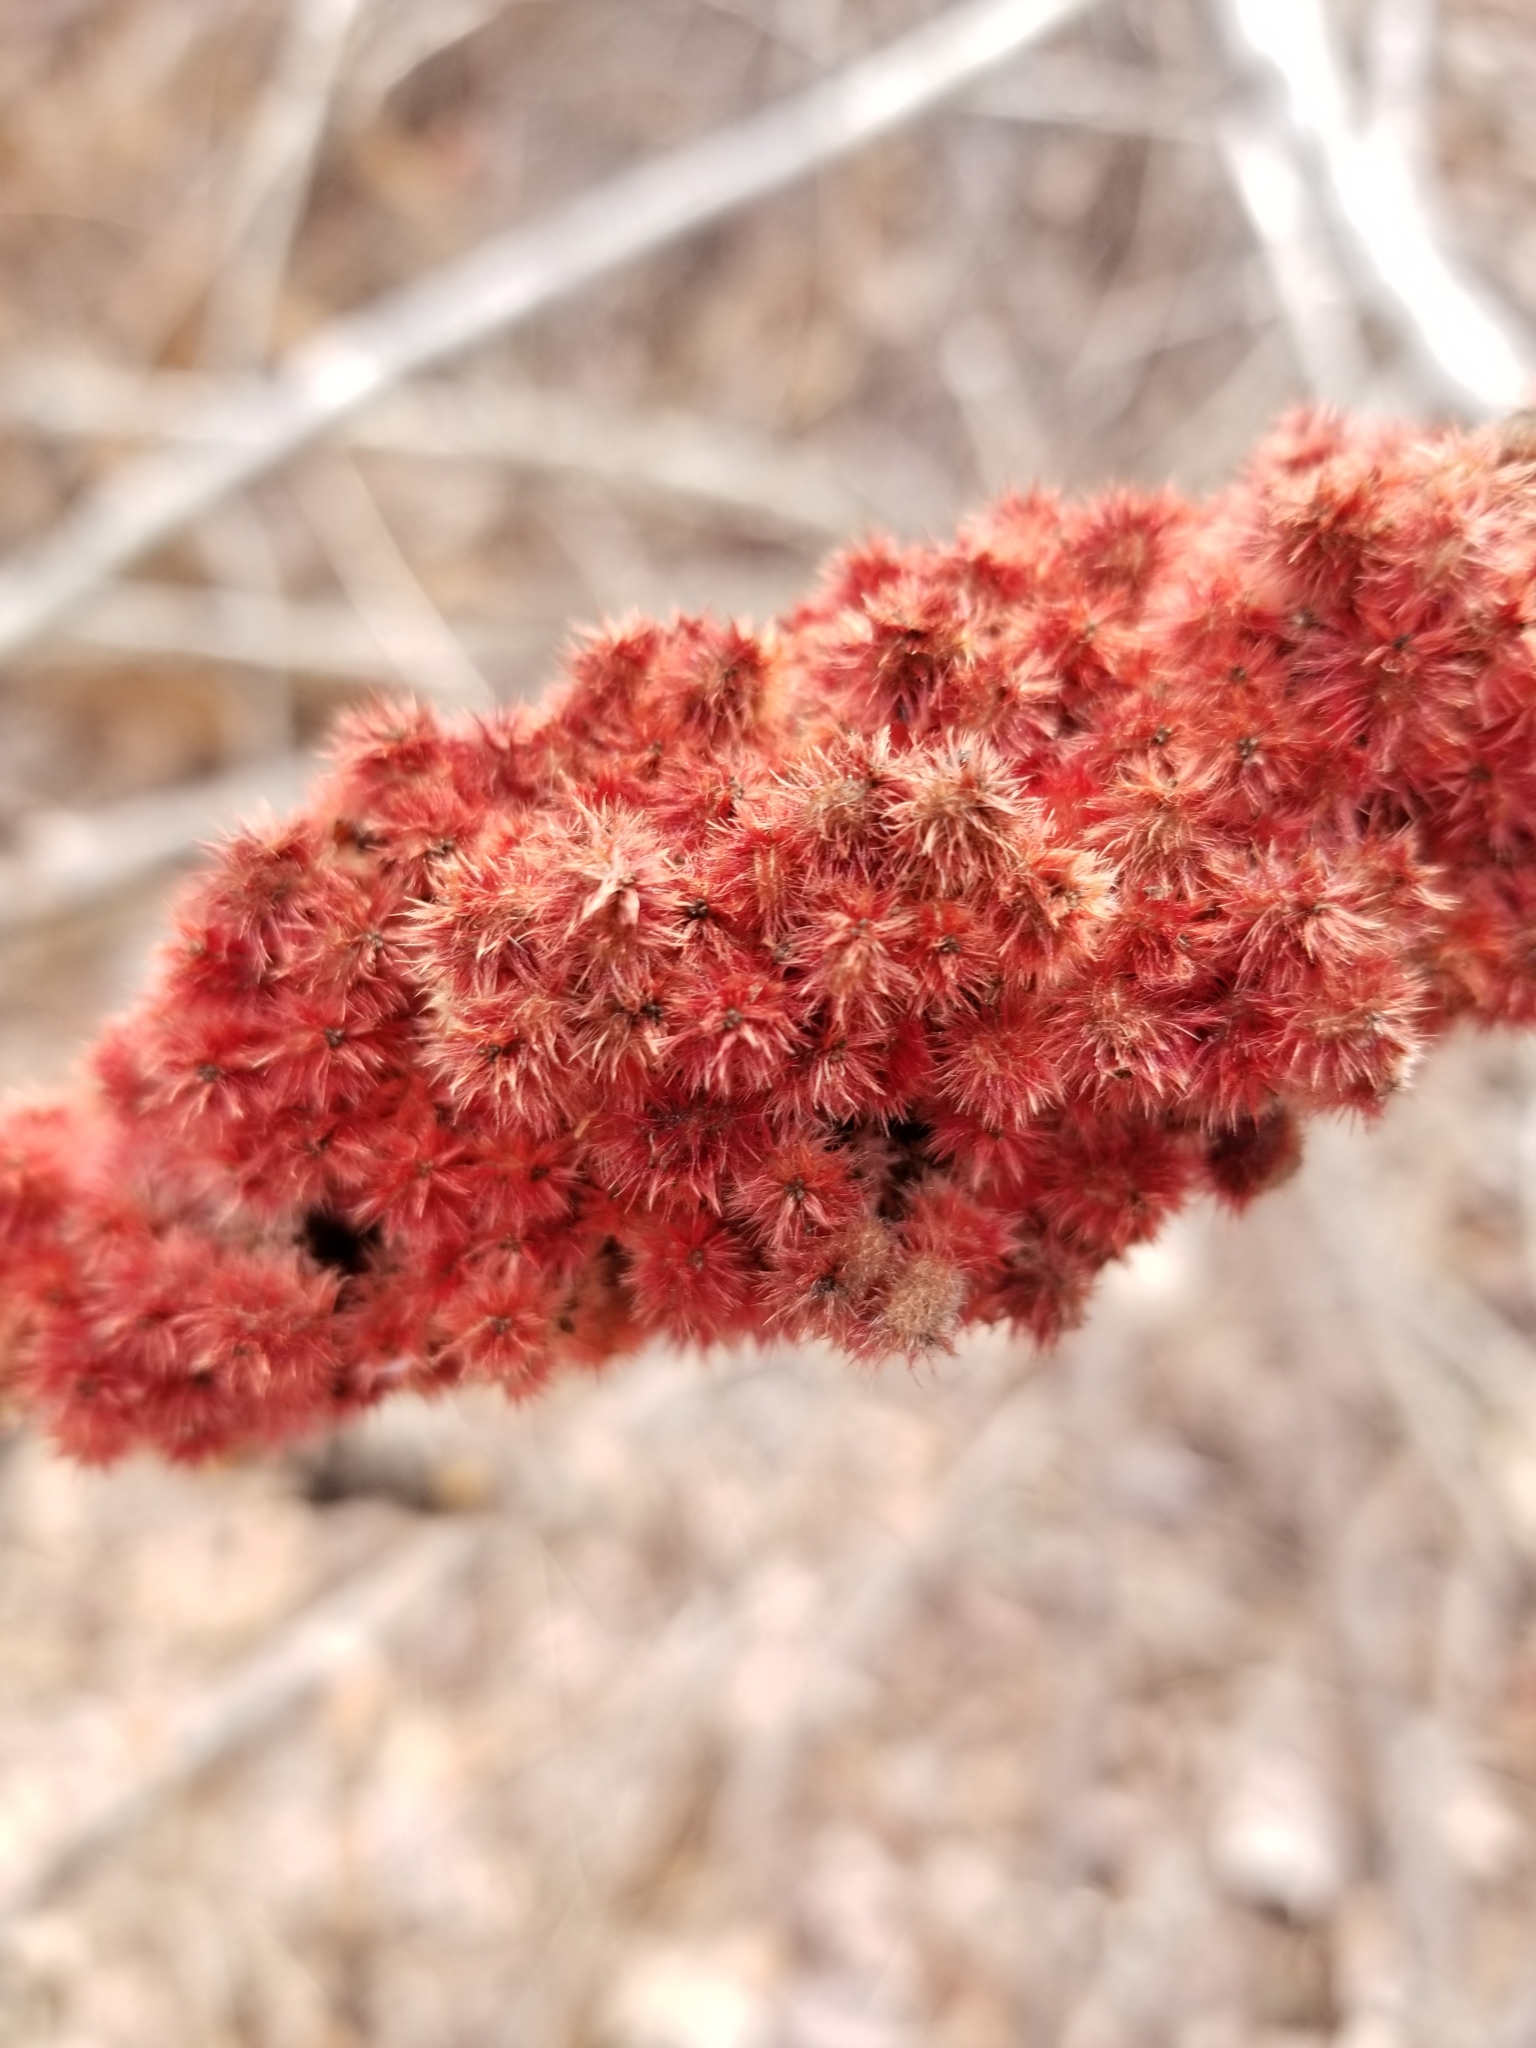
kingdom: Plantae
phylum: Tracheophyta
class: Magnoliopsida
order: Sapindales
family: Anacardiaceae
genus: Rhus
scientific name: Rhus typhina
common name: Staghorn sumac
